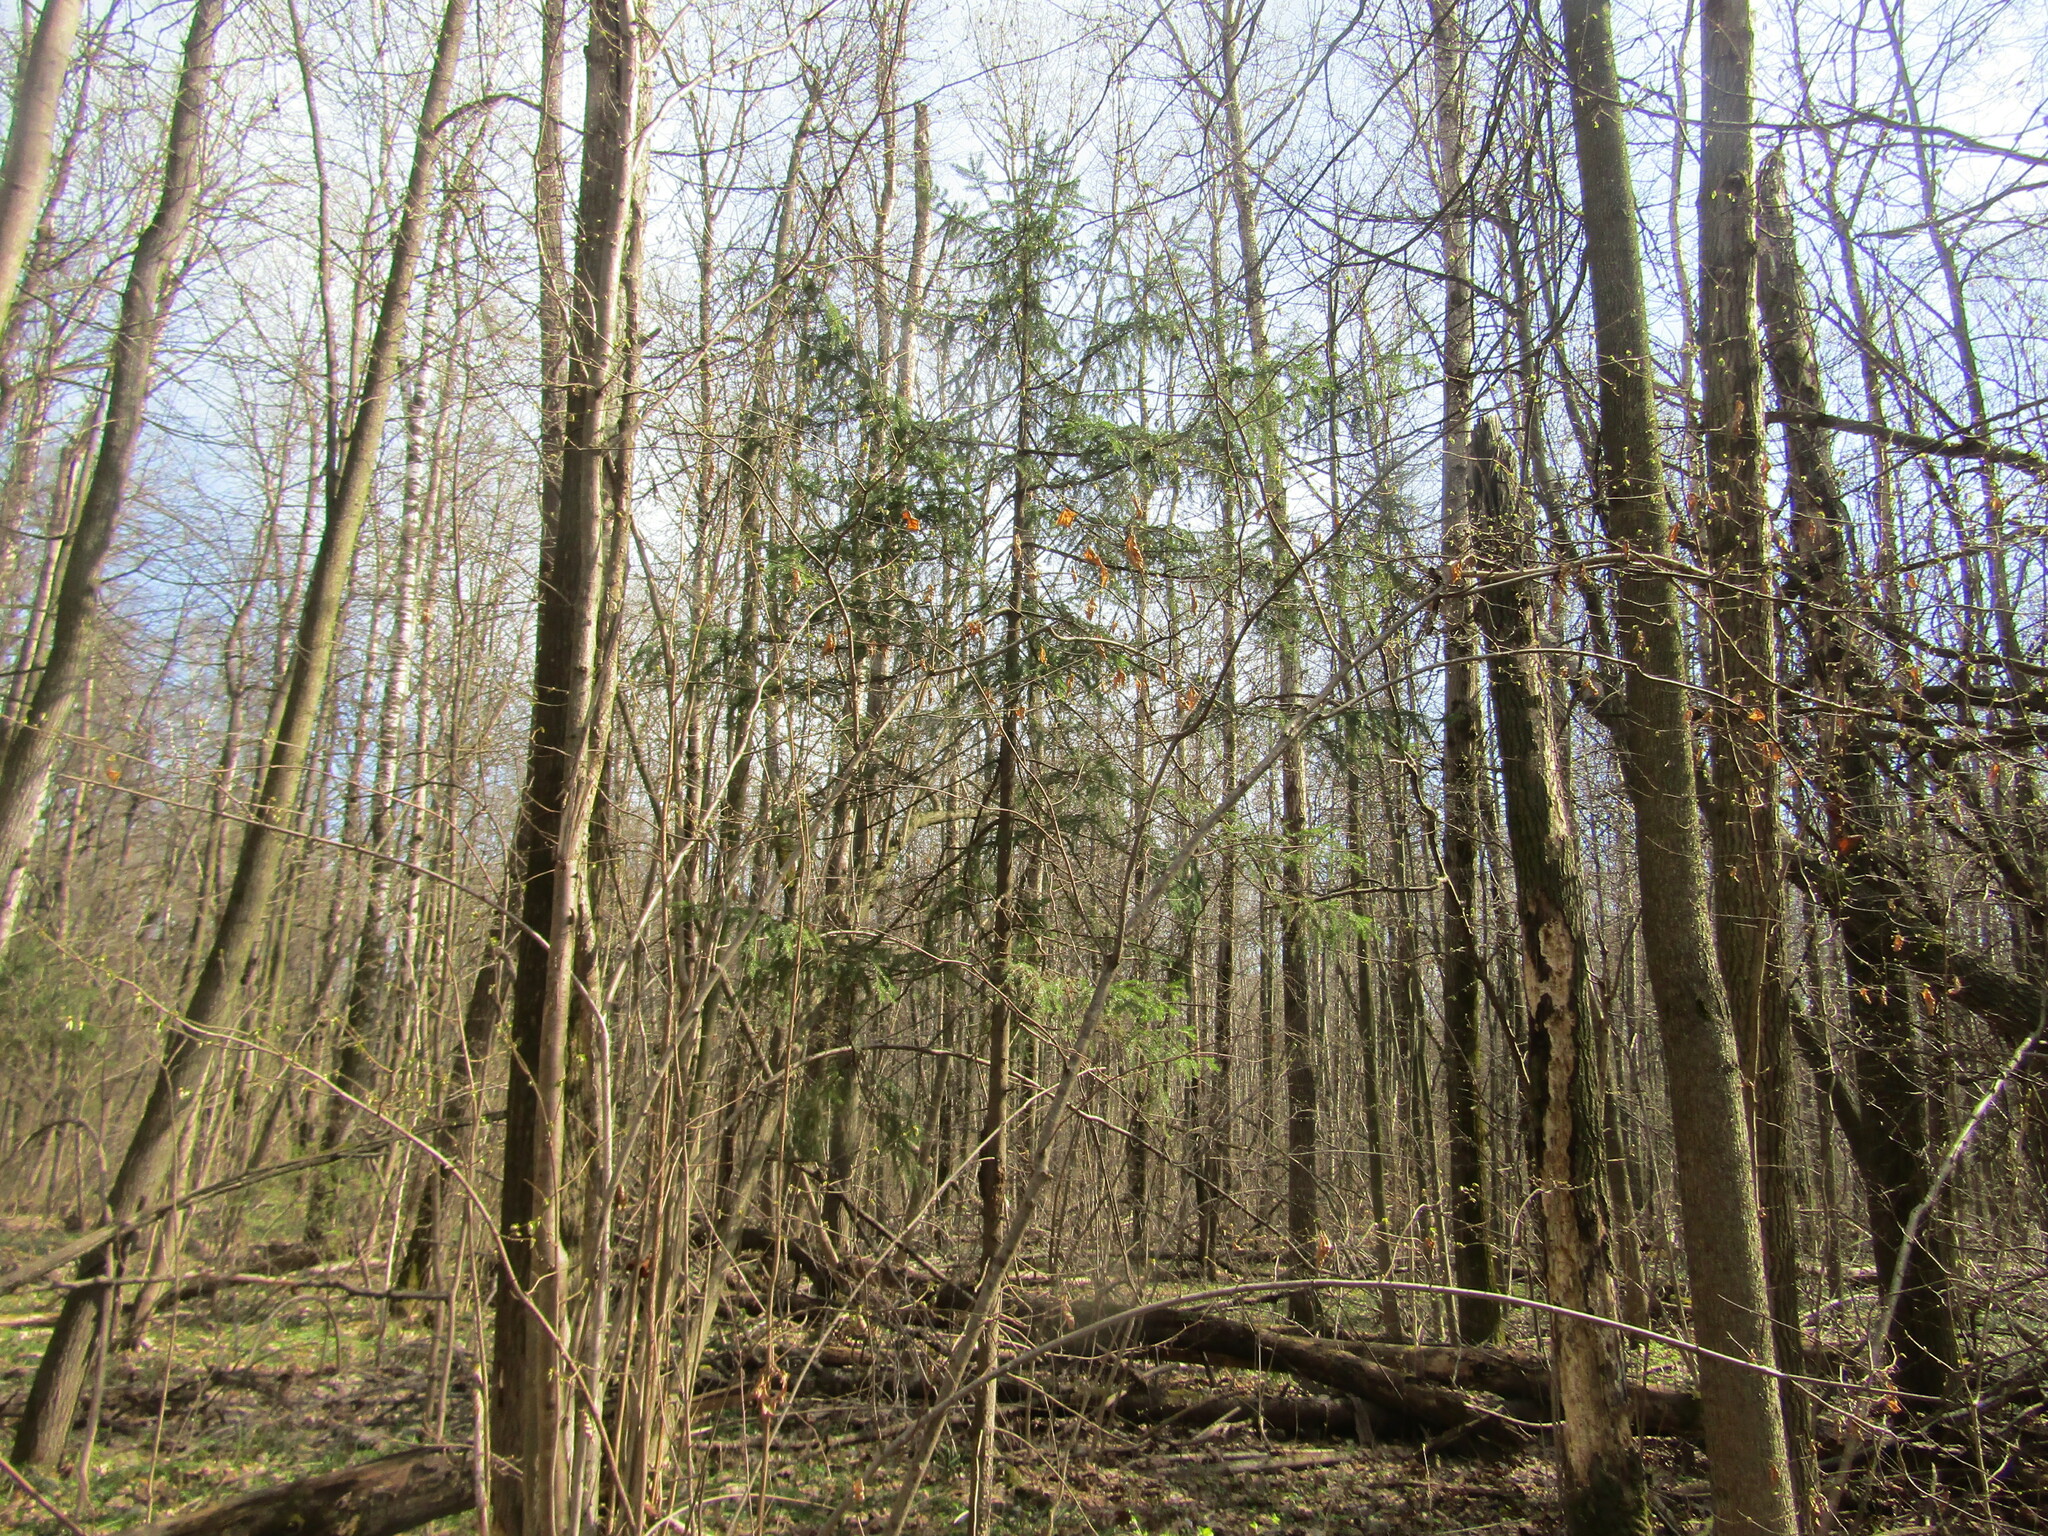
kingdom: Plantae
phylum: Tracheophyta
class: Pinopsida
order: Pinales
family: Pinaceae
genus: Picea
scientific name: Picea abies
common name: Norway spruce
